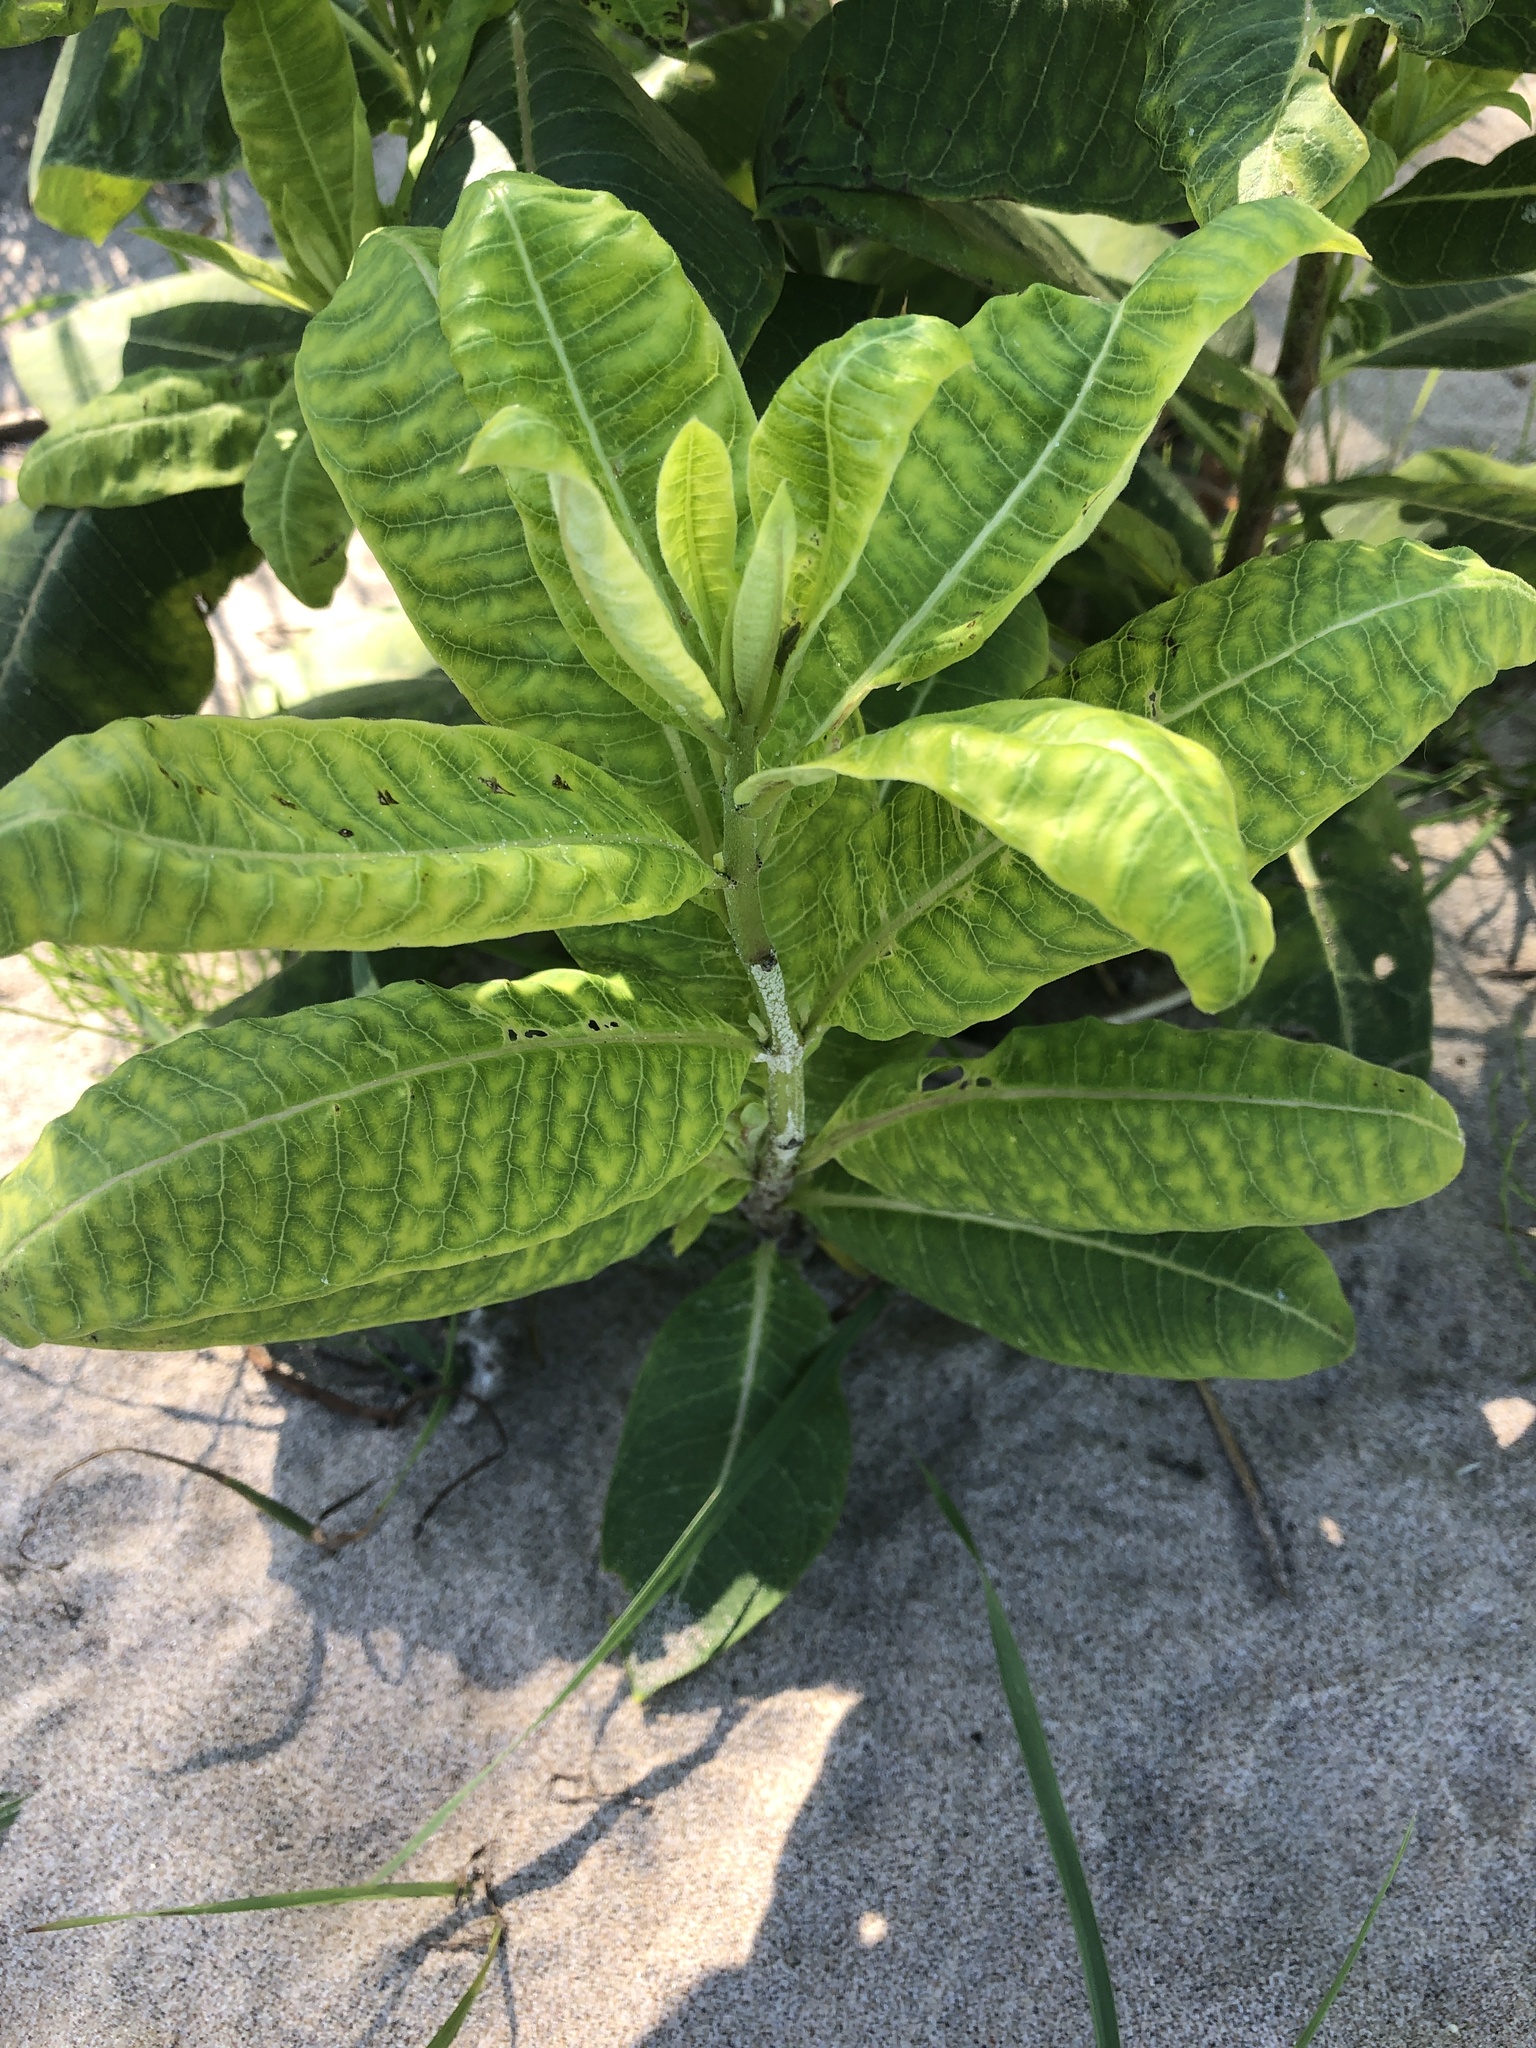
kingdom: Plantae
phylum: Tracheophyta
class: Magnoliopsida
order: Gentianales
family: Apocynaceae
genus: Asclepias
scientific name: Asclepias syriaca
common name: Common milkweed
